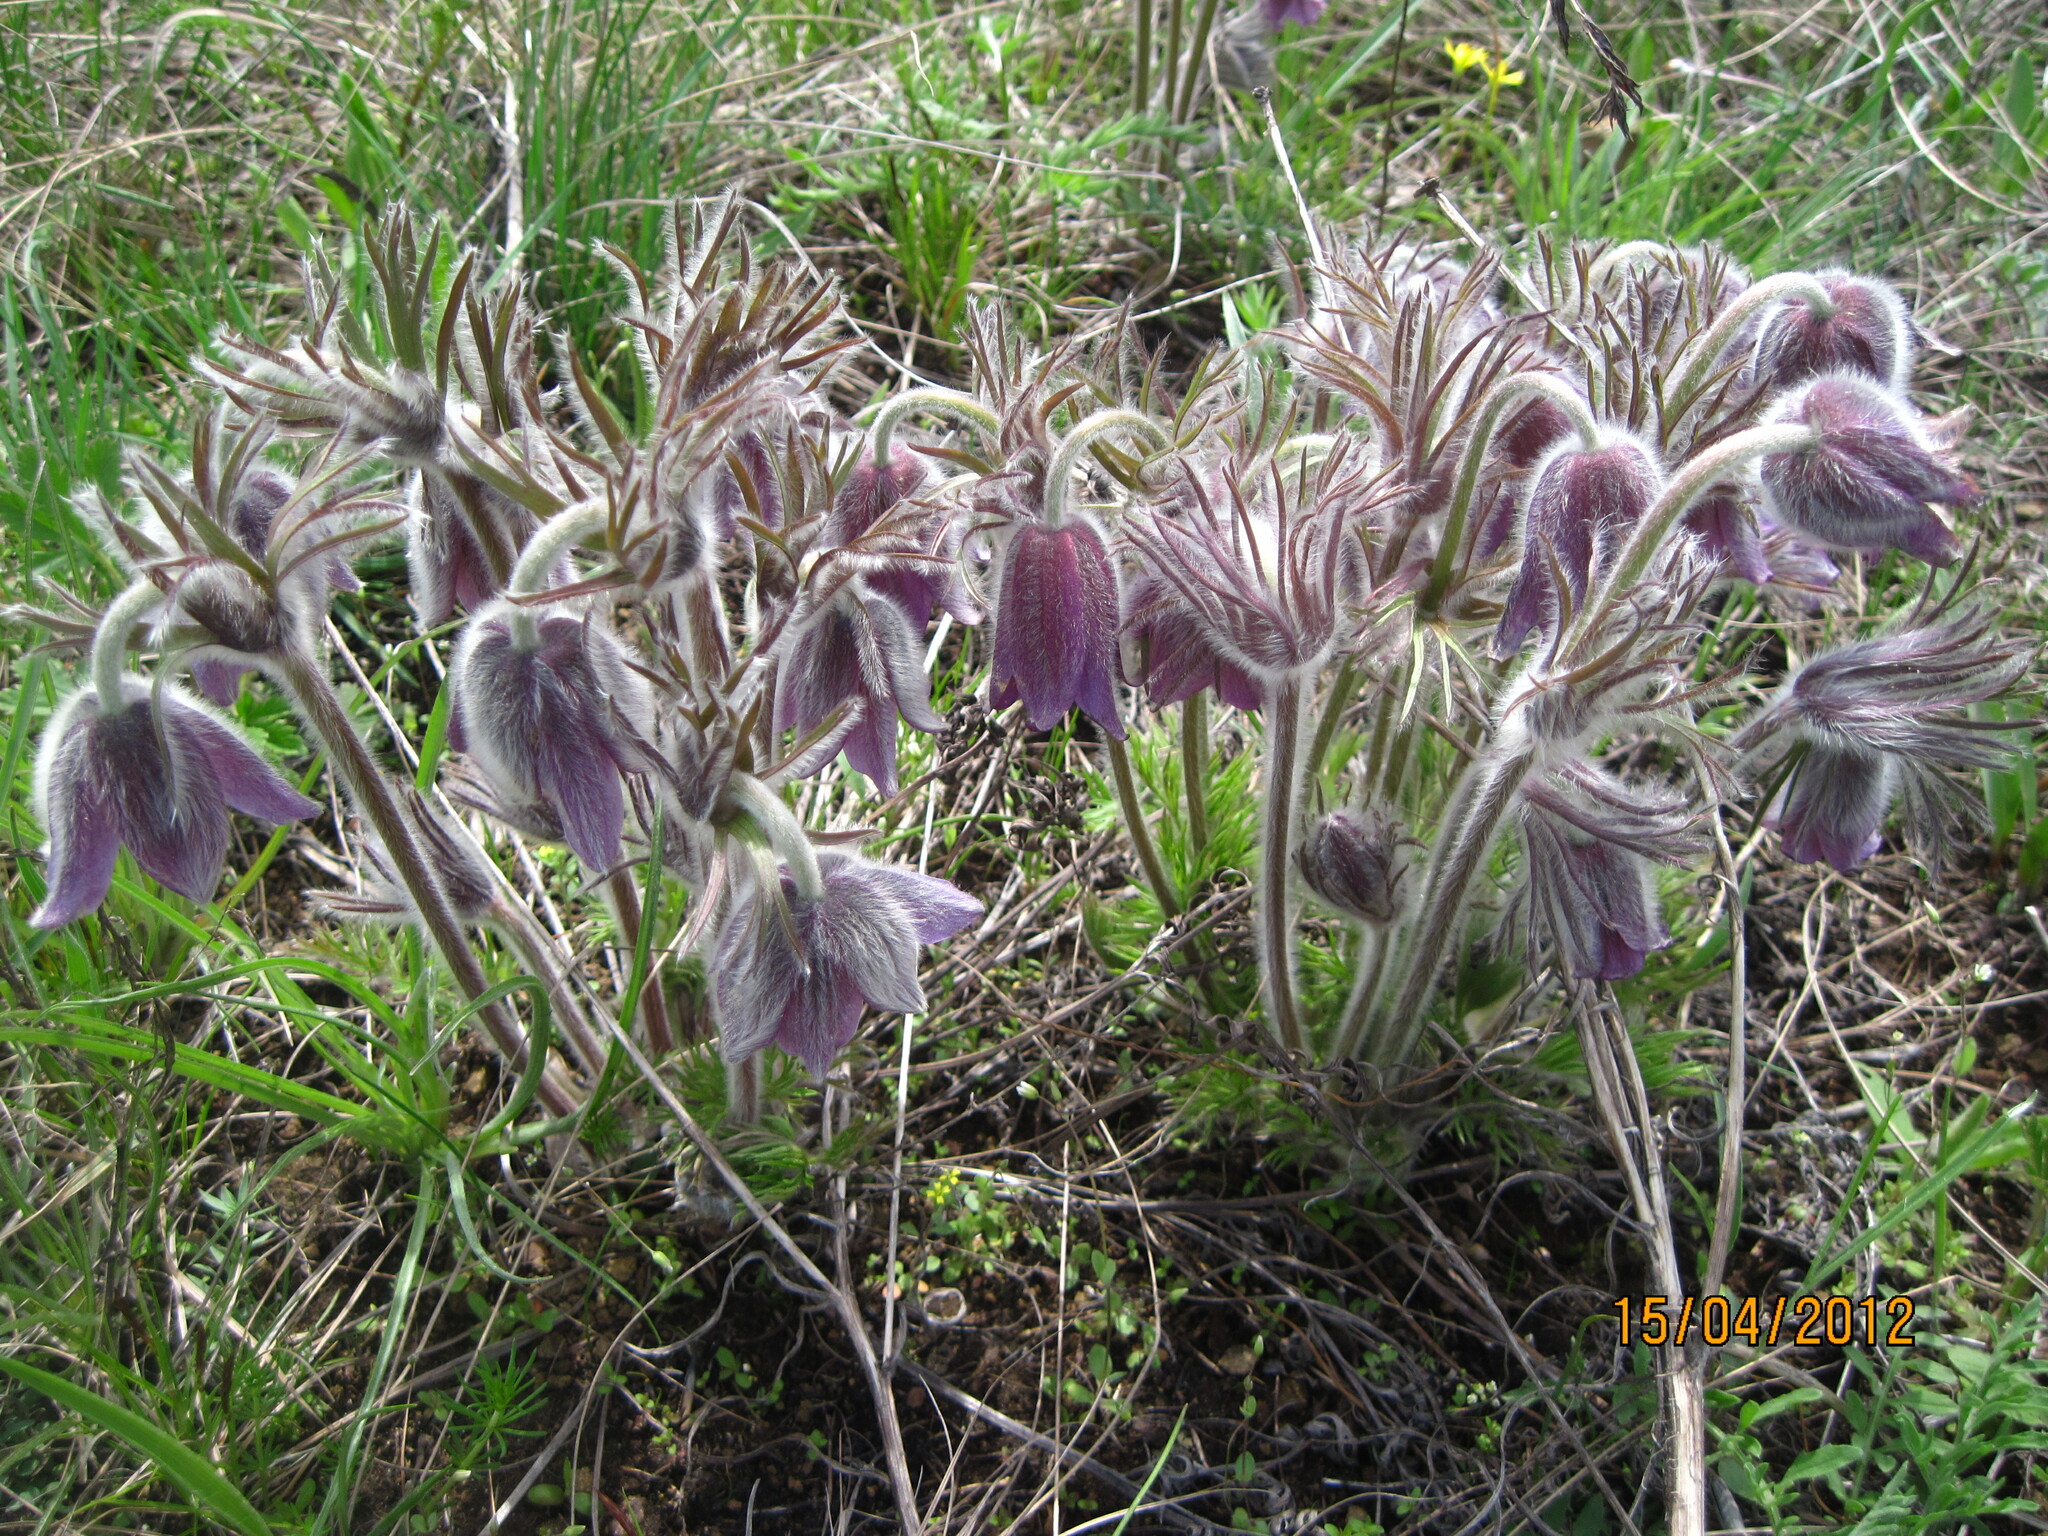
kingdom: Plantae
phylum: Tracheophyta
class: Magnoliopsida
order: Ranunculales
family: Ranunculaceae
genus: Pulsatilla
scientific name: Pulsatilla pratensis
